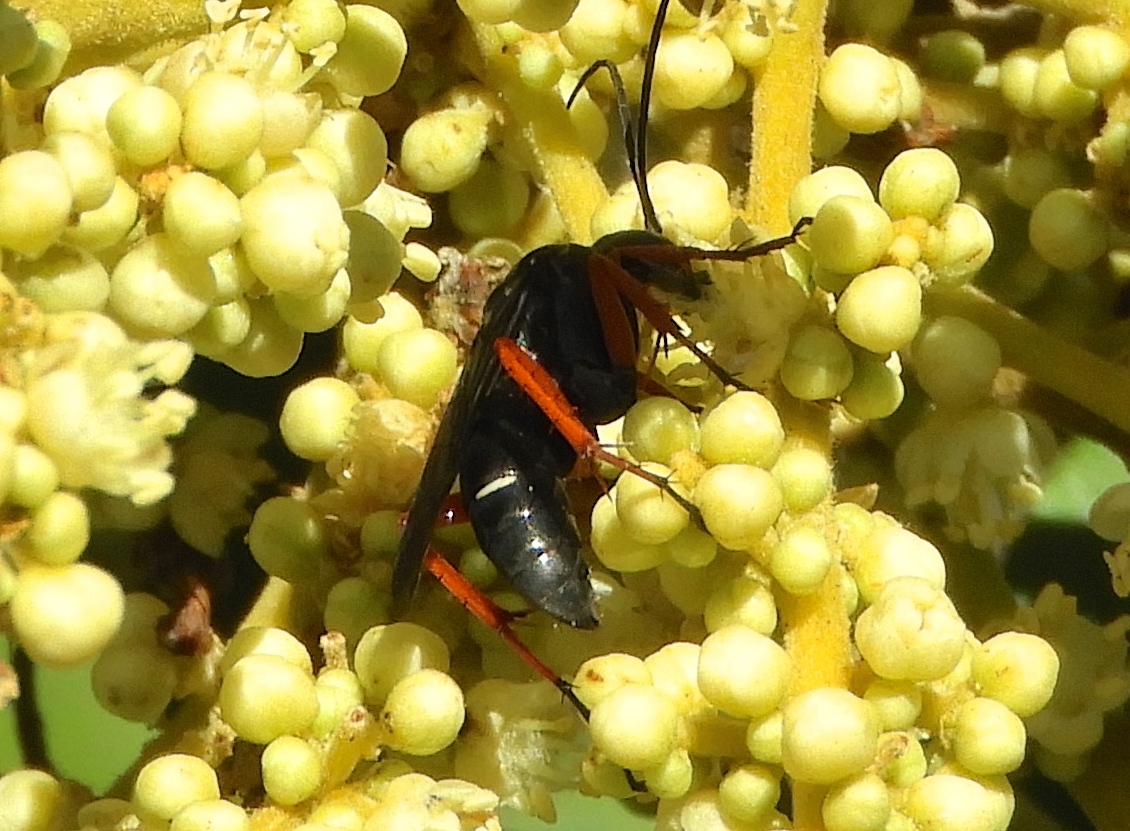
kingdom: Animalia
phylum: Arthropoda
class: Insecta
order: Hymenoptera
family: Pompilidae
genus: Episyron
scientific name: Episyron conterminus
